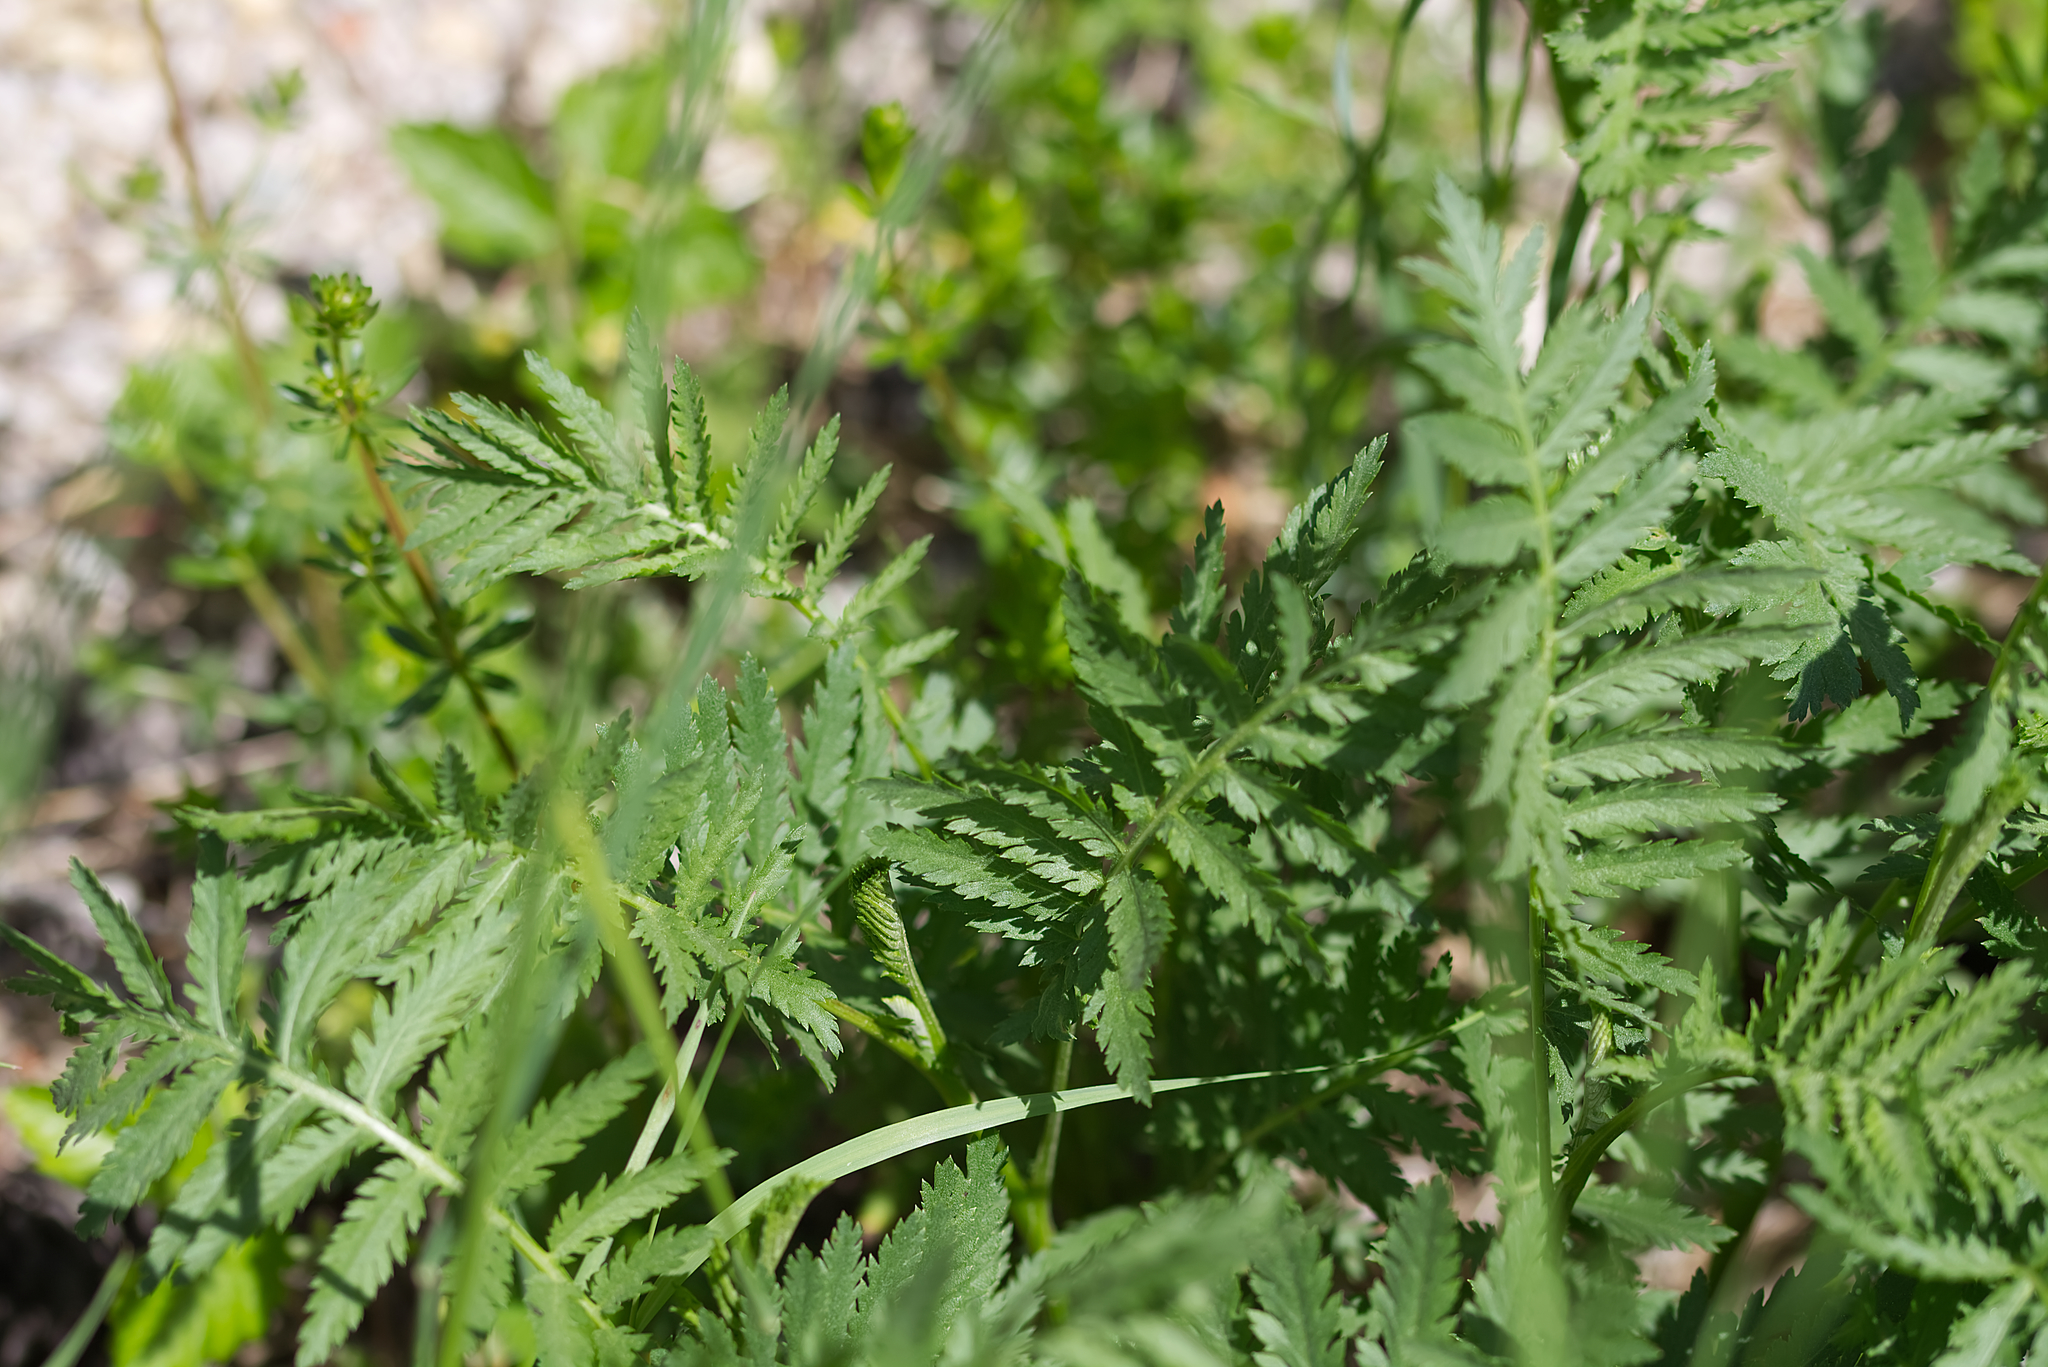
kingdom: Plantae
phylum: Tracheophyta
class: Magnoliopsida
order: Asterales
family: Asteraceae
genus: Tanacetum
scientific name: Tanacetum vulgare
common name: Common tansy
